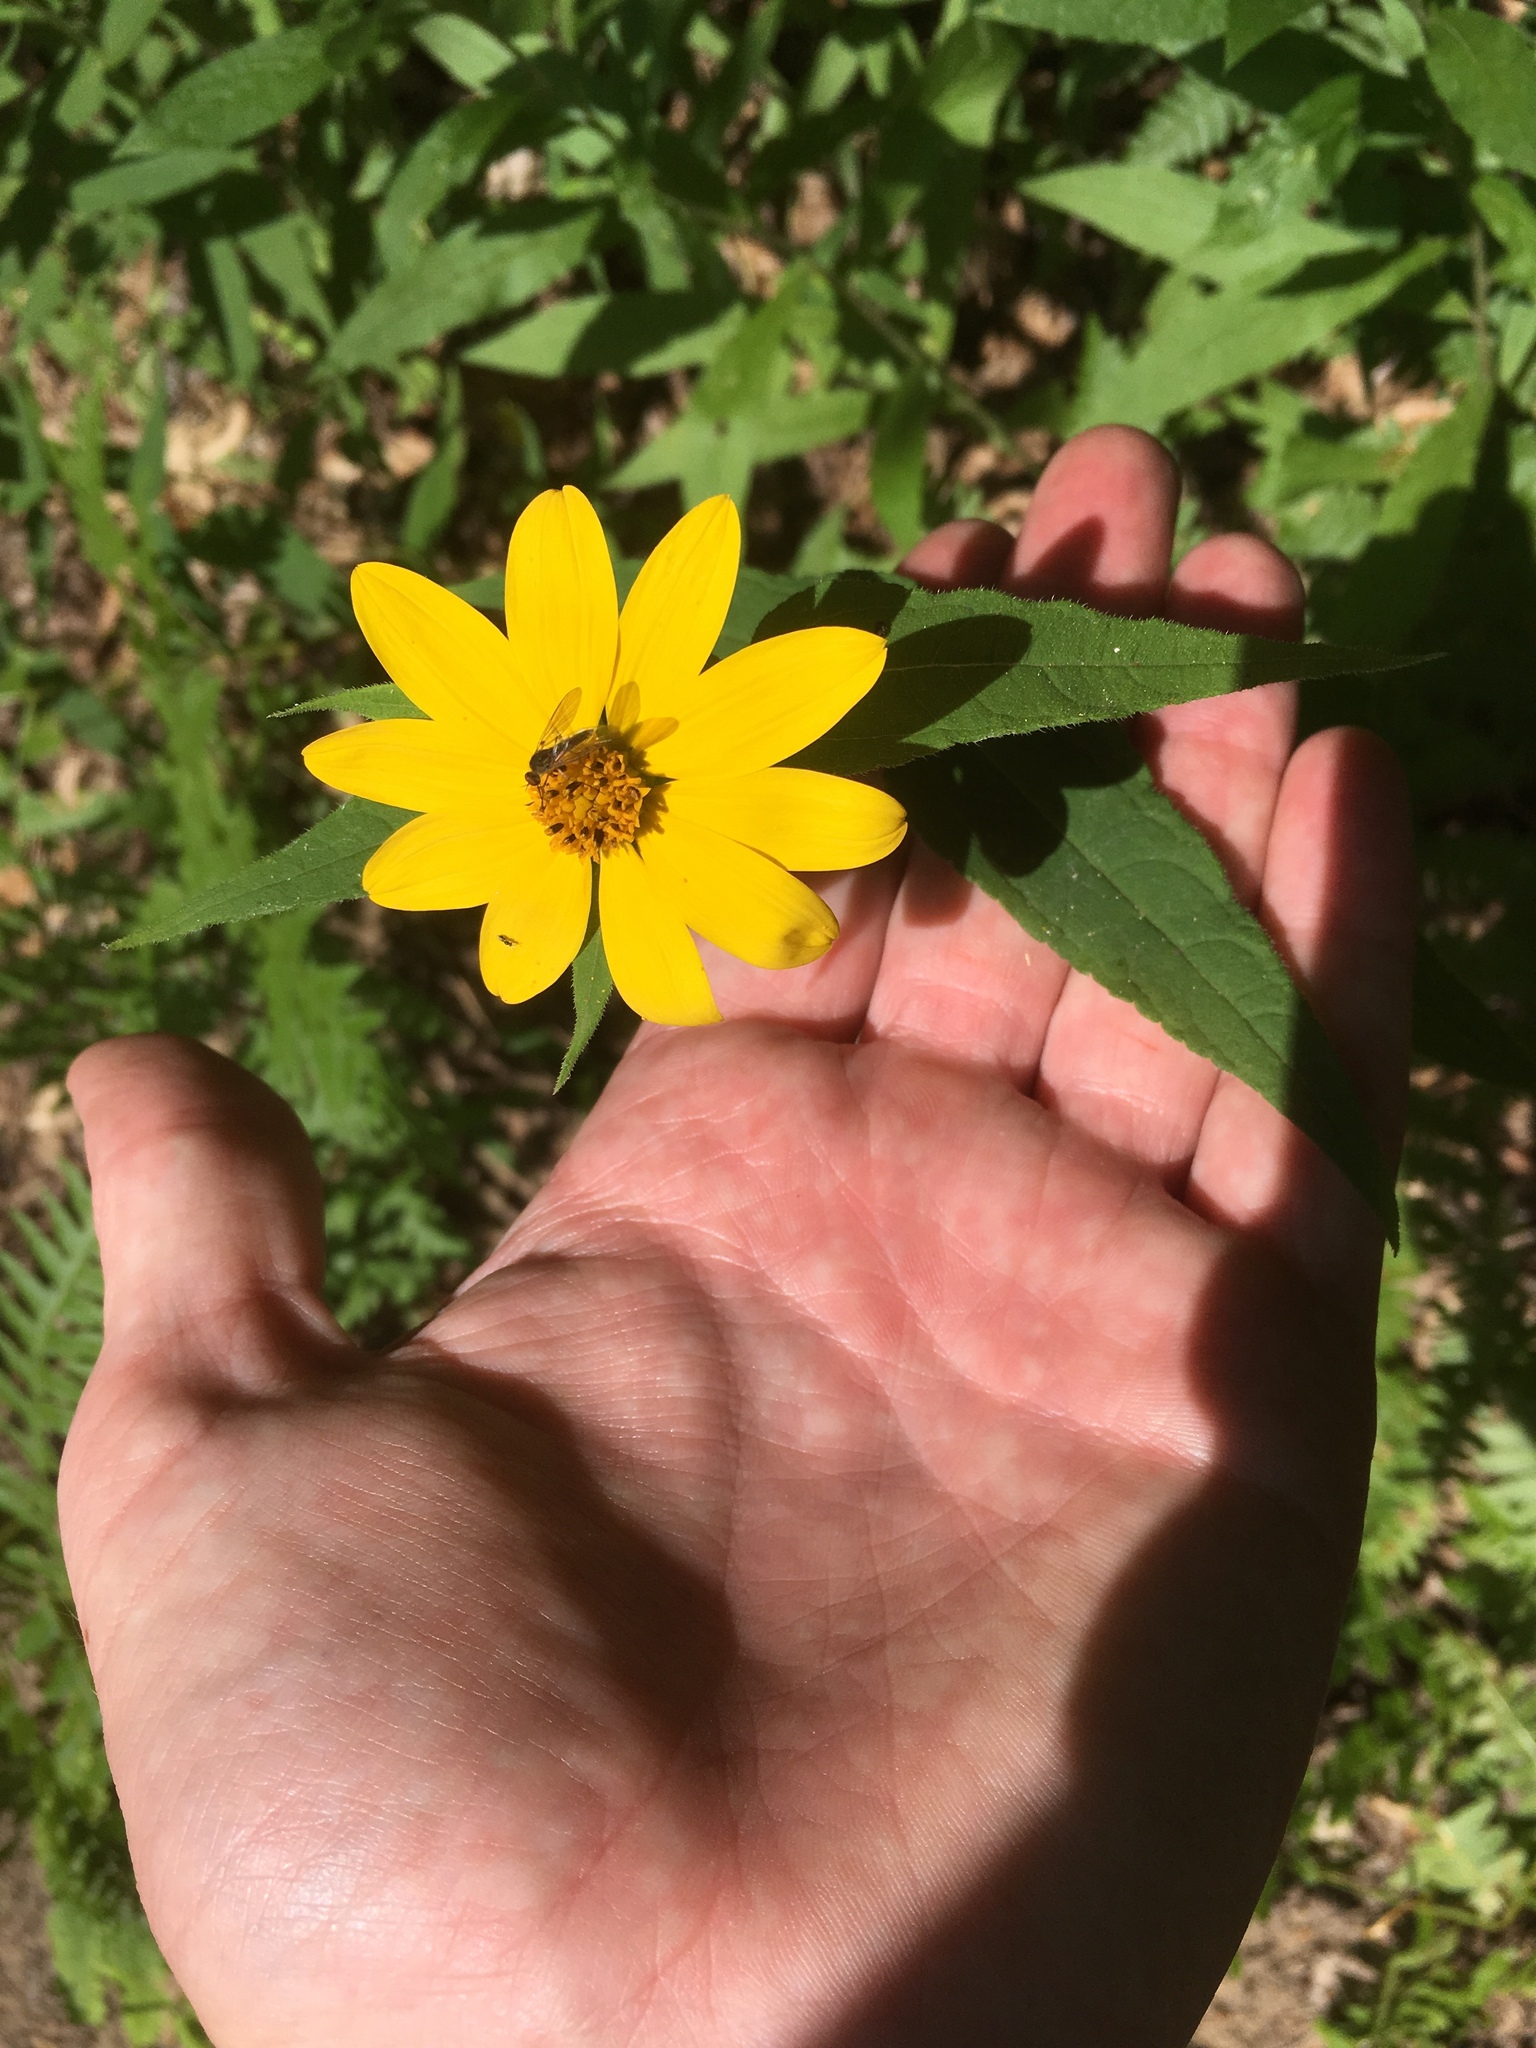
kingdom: Plantae
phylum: Tracheophyta
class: Magnoliopsida
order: Asterales
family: Asteraceae
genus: Helianthus
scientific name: Helianthus divaricatus
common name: Divergent sunflower
